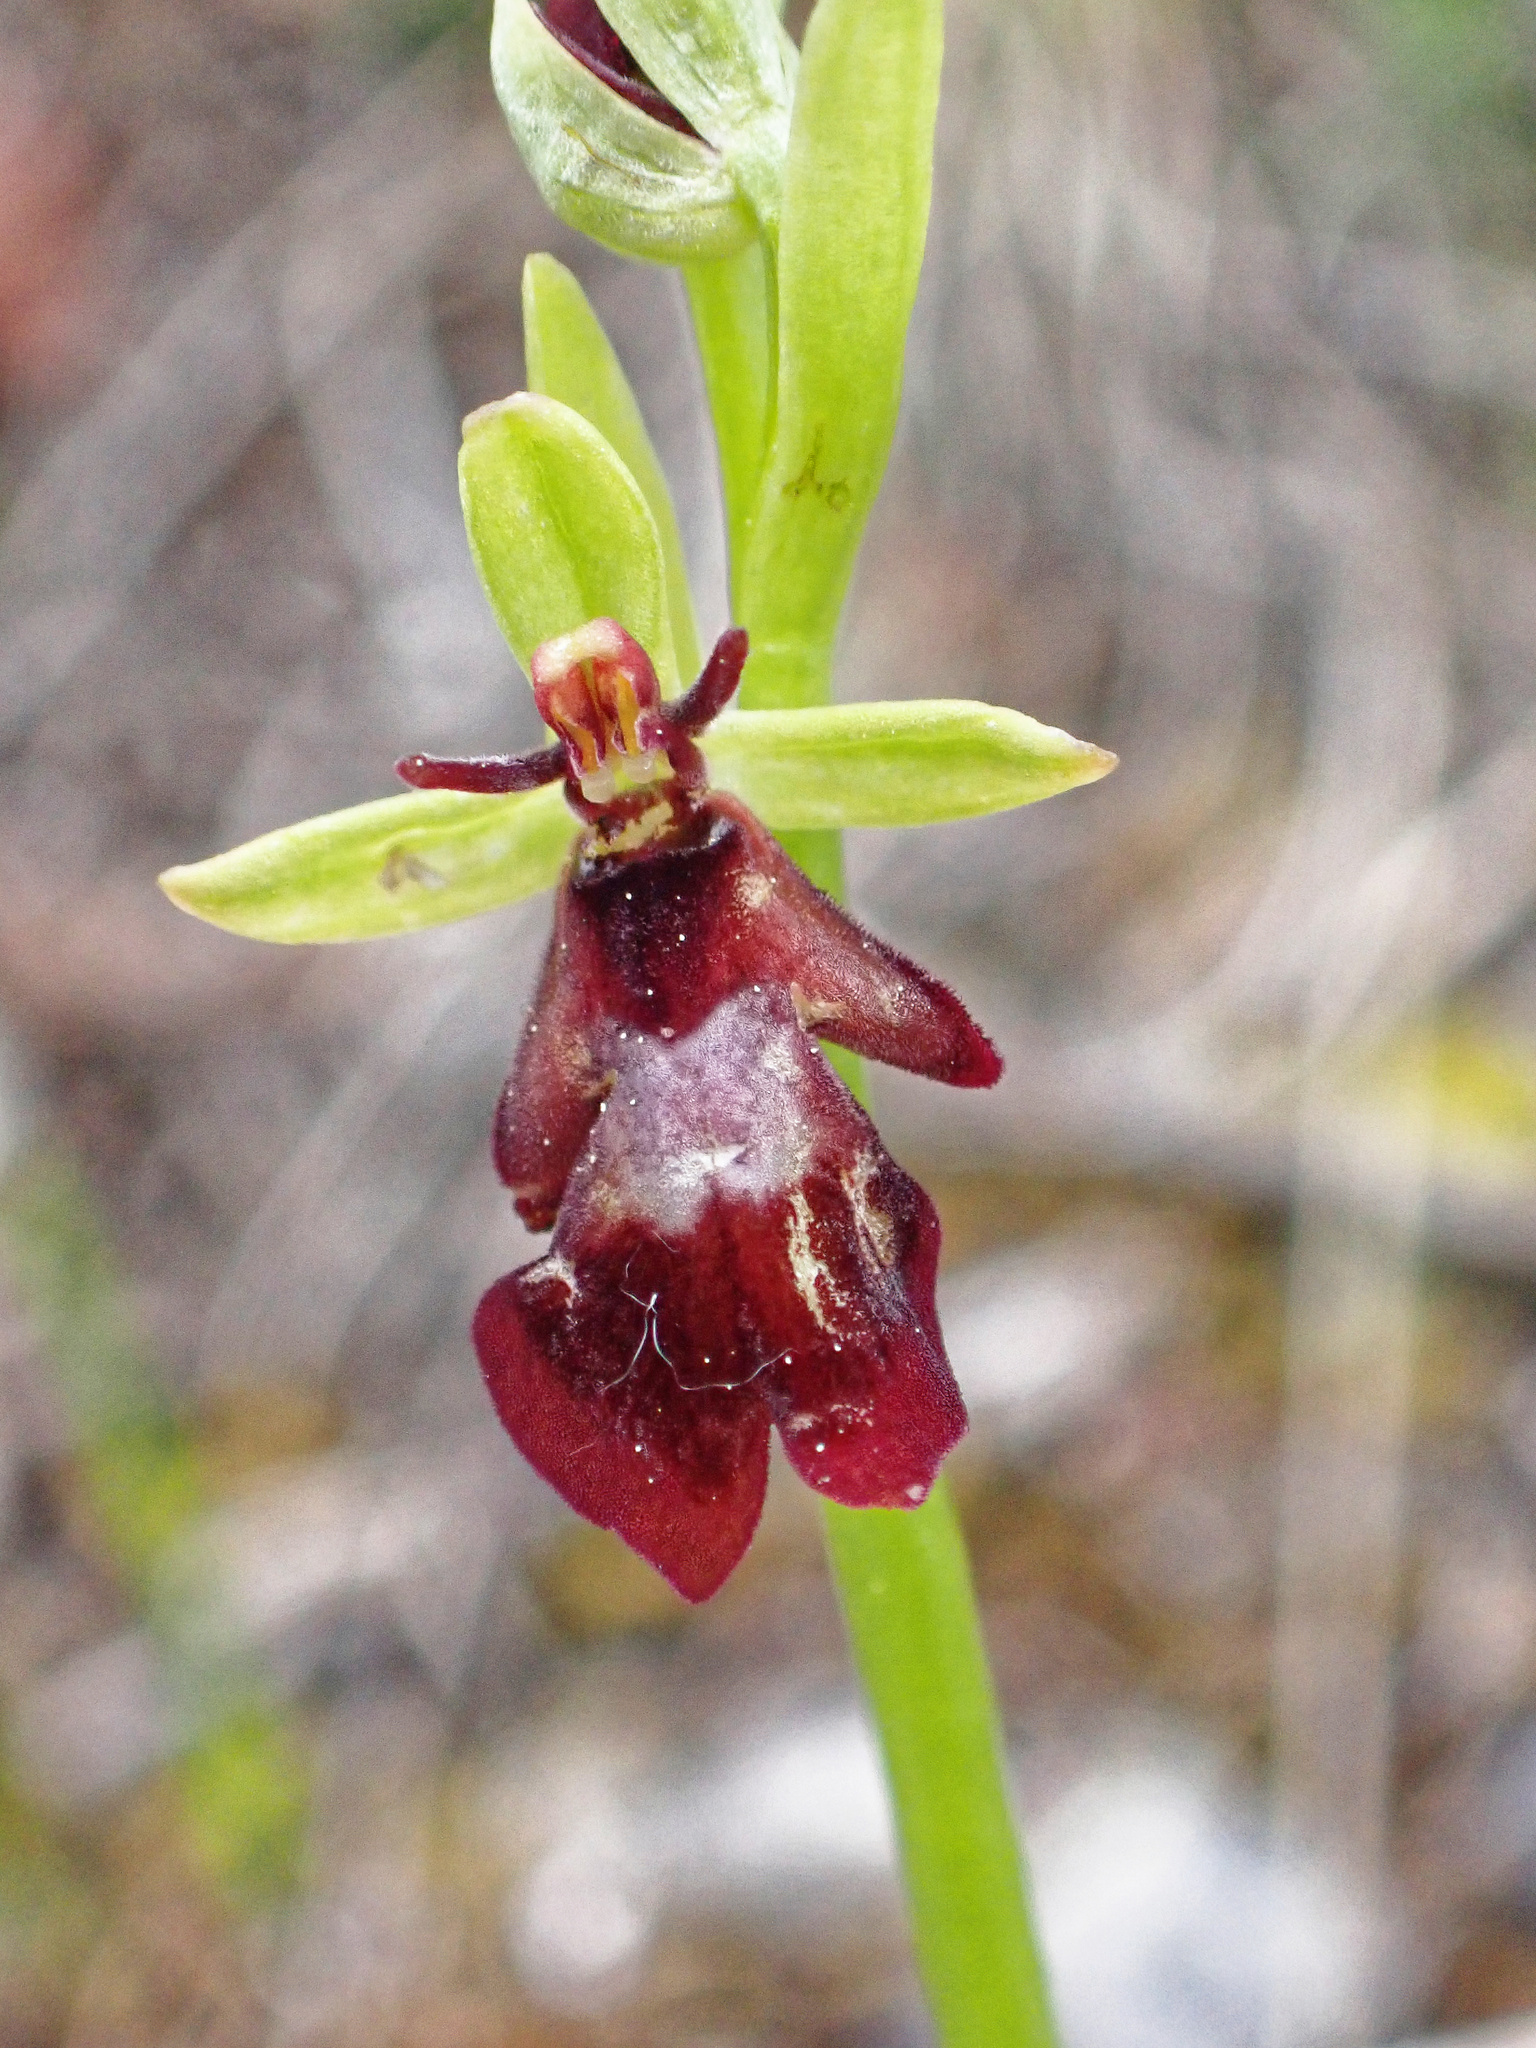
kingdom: Plantae
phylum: Tracheophyta
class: Liliopsida
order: Asparagales
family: Orchidaceae
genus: Ophrys
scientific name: Ophrys insectifera
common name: Fly orchid
